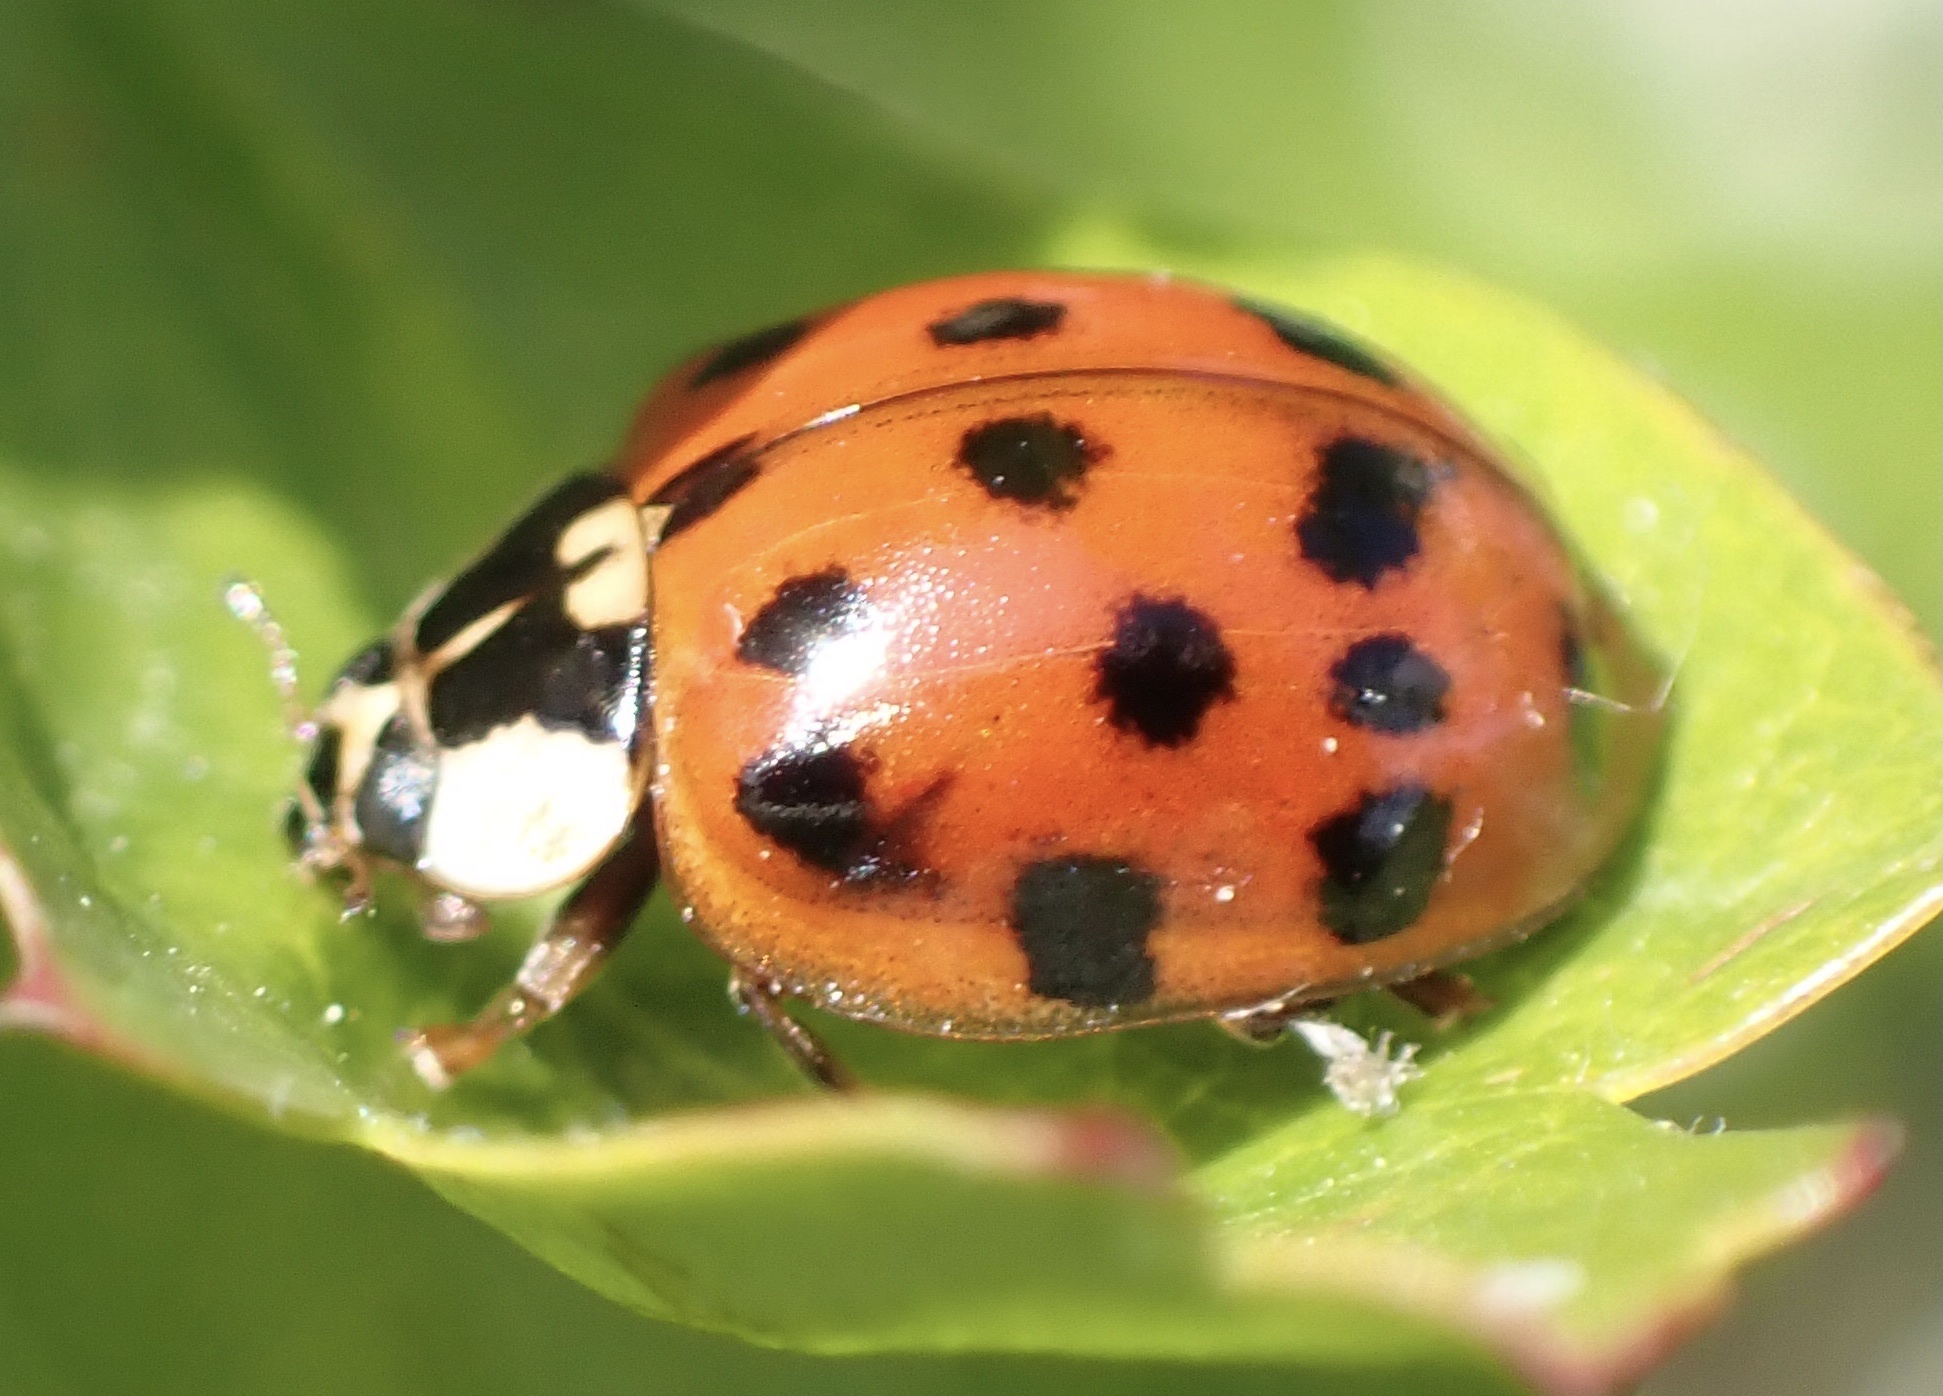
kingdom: Animalia
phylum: Arthropoda
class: Insecta
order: Coleoptera
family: Coccinellidae
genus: Harmonia
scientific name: Harmonia axyridis
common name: Harlequin ladybird
